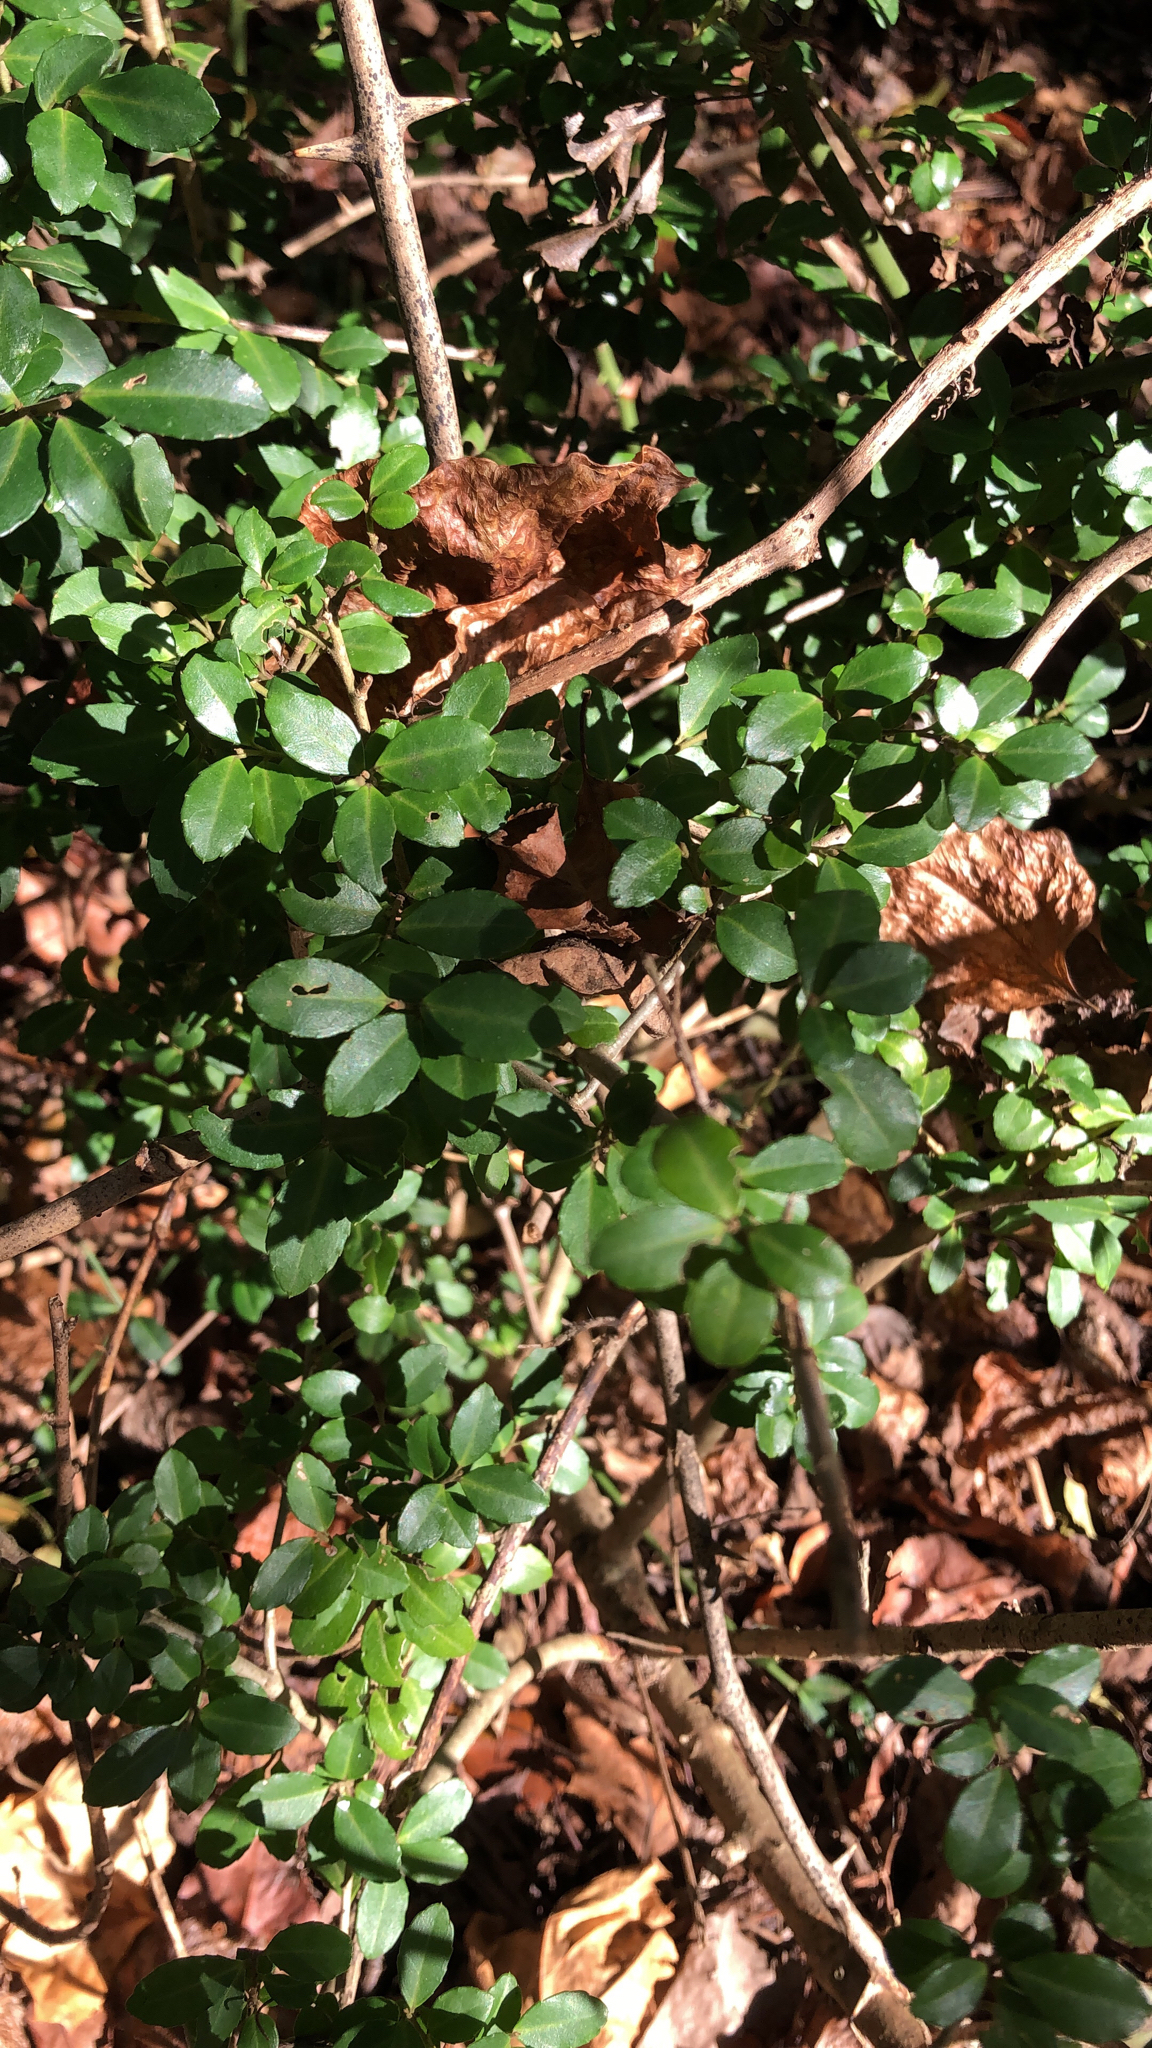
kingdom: Plantae
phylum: Tracheophyta
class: Magnoliopsida
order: Aquifoliales
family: Aquifoliaceae
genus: Ilex
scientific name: Ilex crenata
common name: Japanese holly
